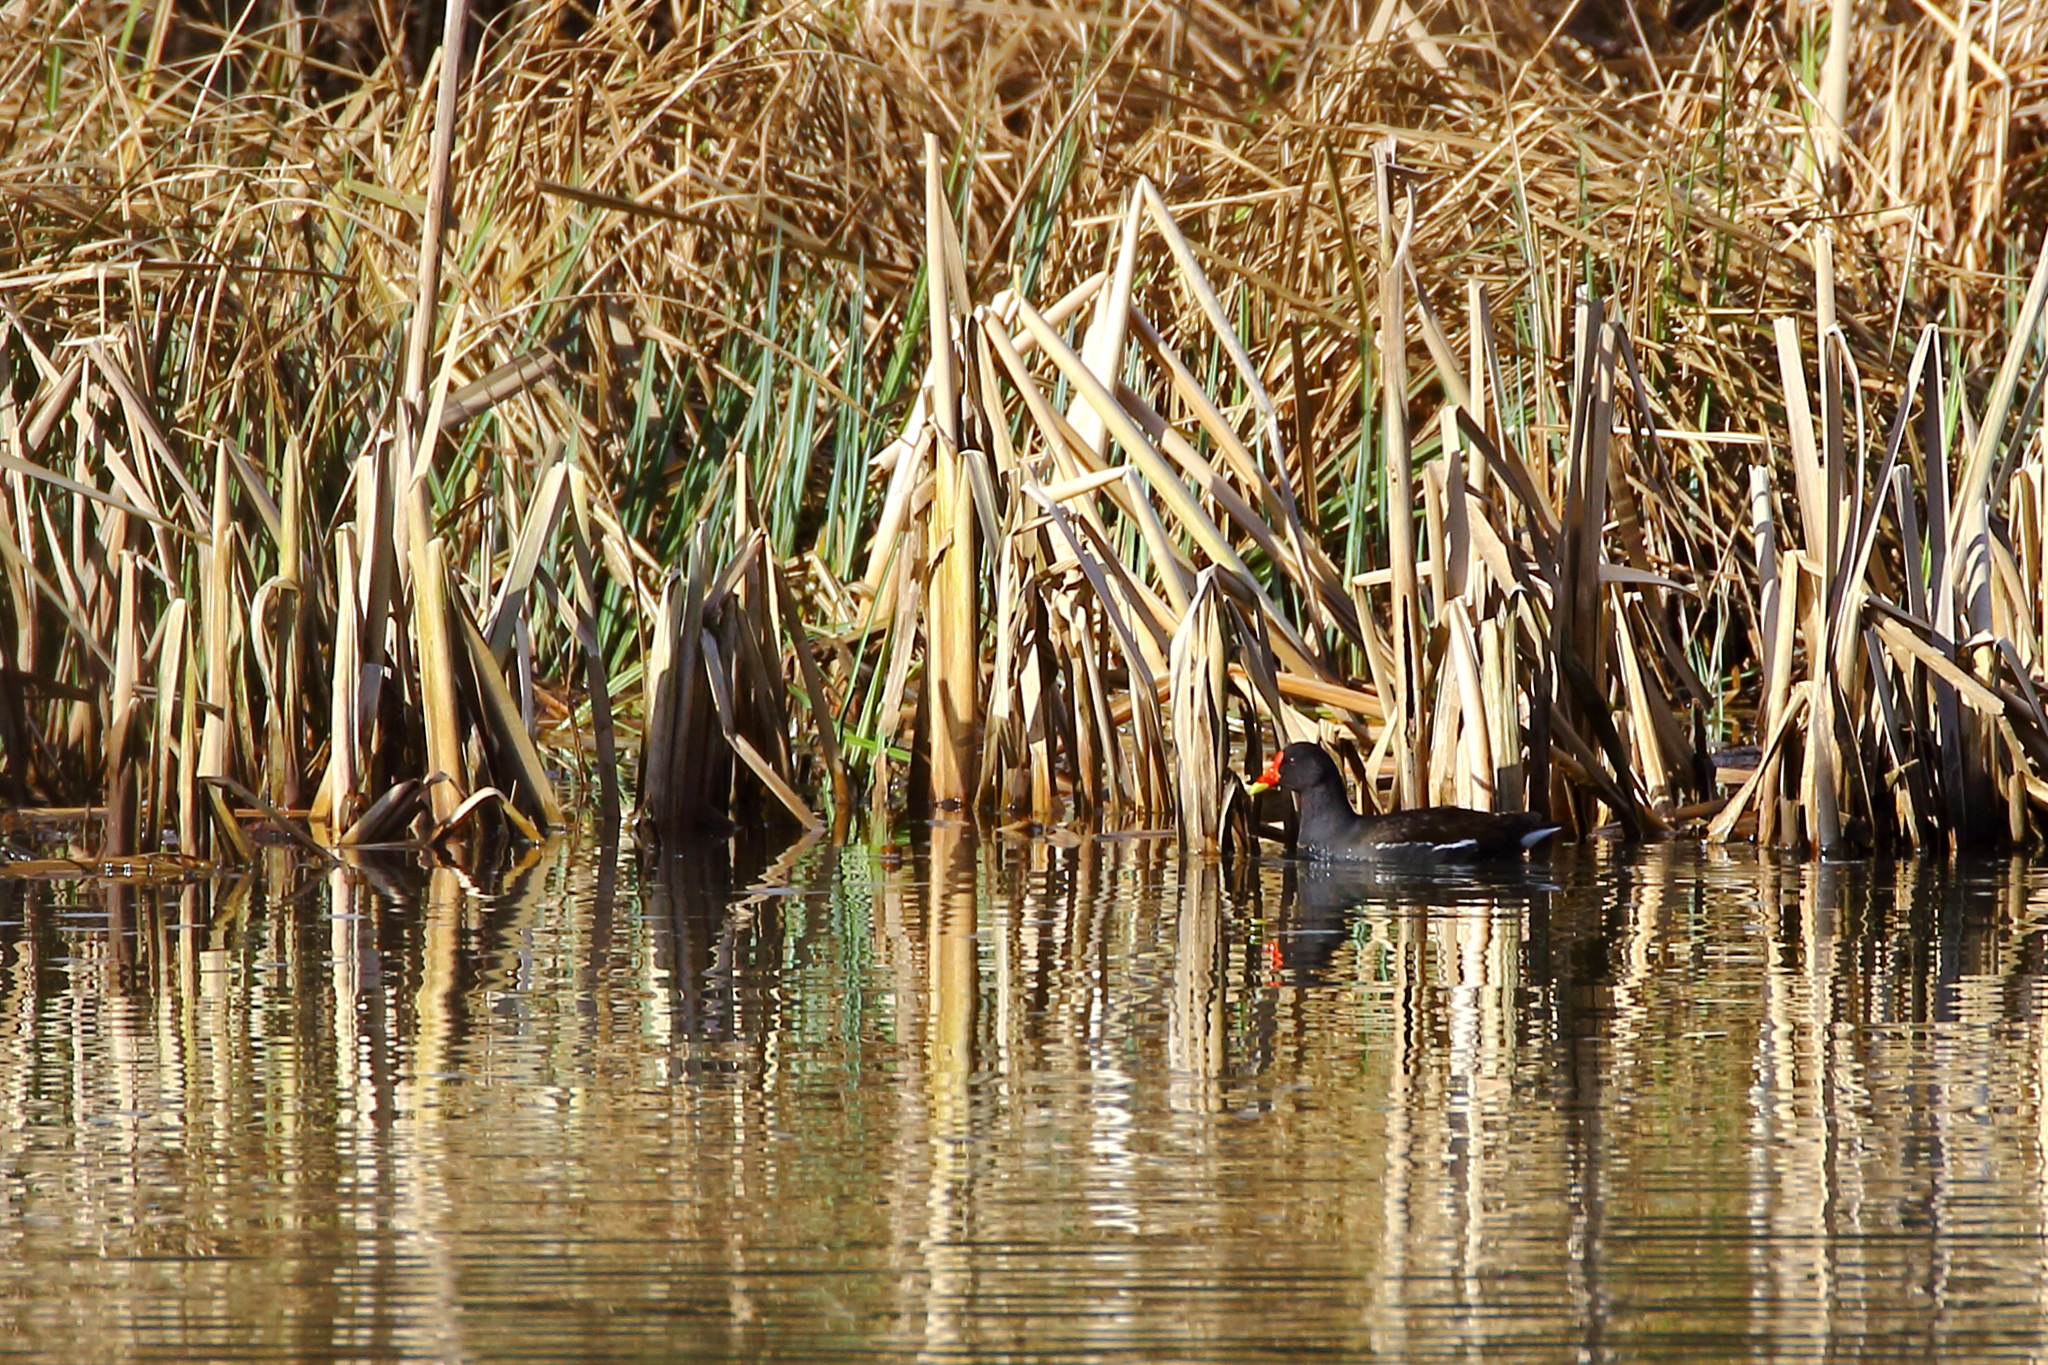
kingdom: Animalia
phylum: Chordata
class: Aves
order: Gruiformes
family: Rallidae
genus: Gallinula
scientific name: Gallinula chloropus
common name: Common moorhen
